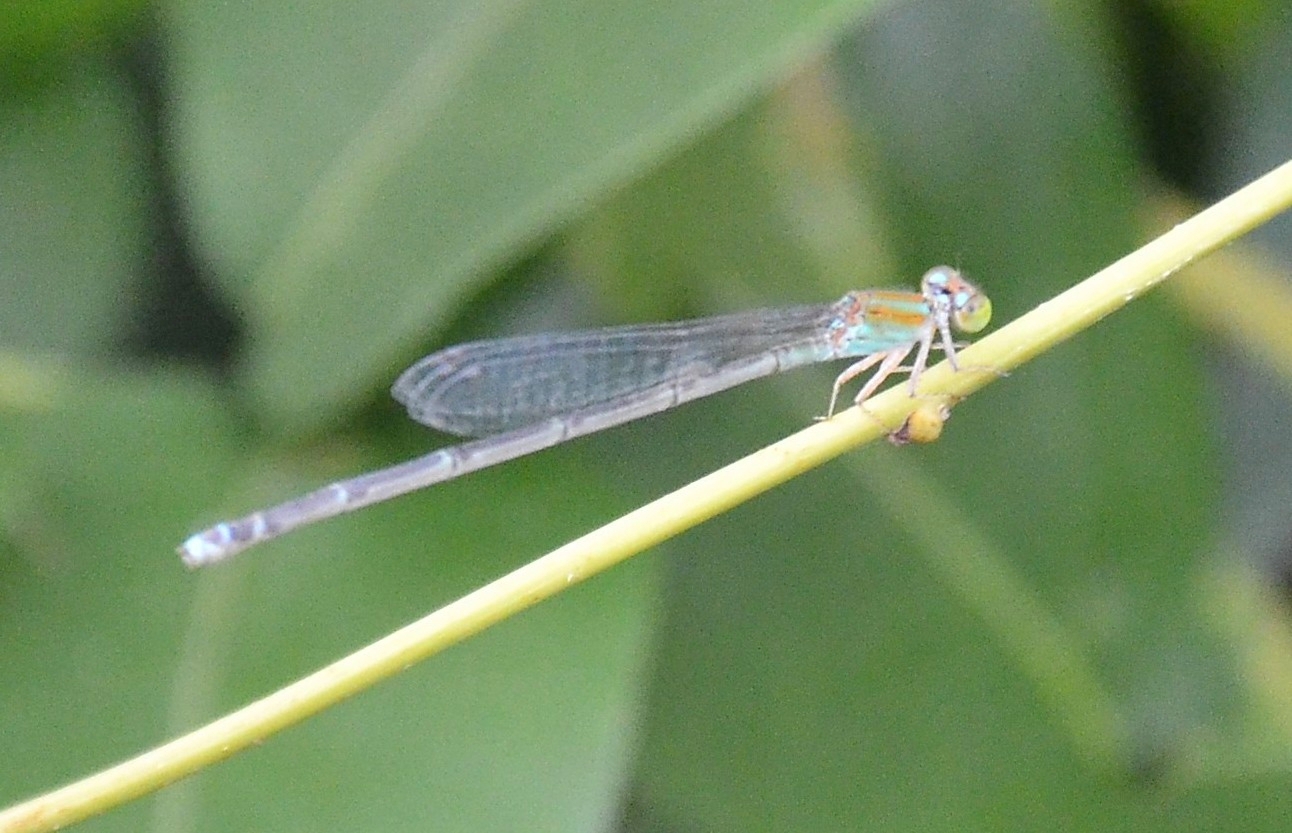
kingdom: Animalia
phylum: Arthropoda
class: Insecta
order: Odonata
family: Coenagrionidae
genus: Pseudagrion
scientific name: Pseudagrion microcephalum
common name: Blue riverdamsel
